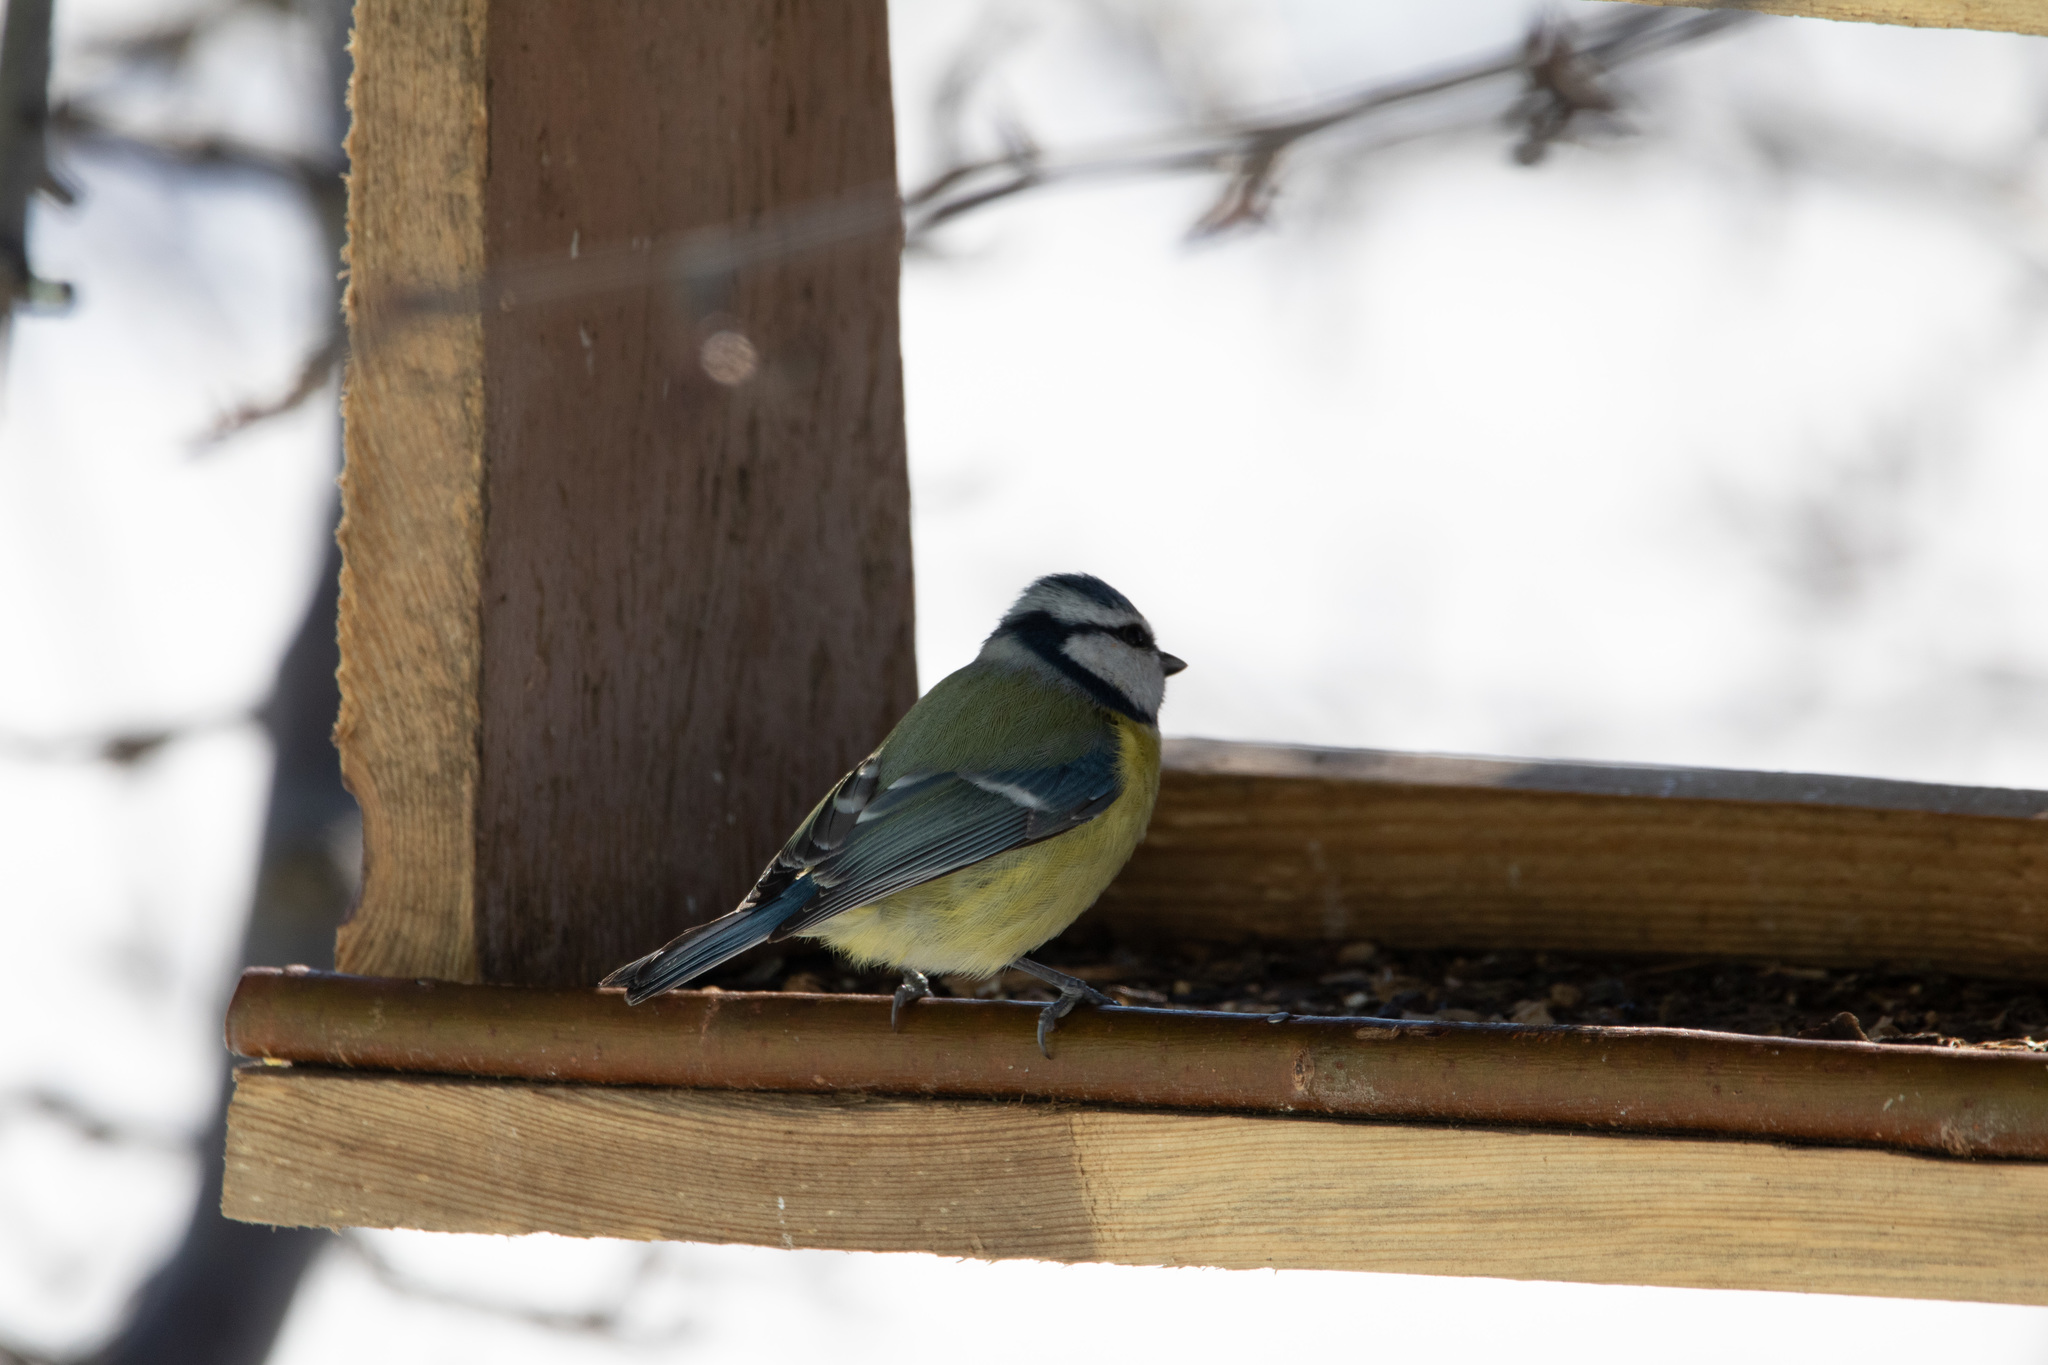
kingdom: Animalia
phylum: Chordata
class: Aves
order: Passeriformes
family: Paridae
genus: Cyanistes
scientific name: Cyanistes caeruleus
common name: Eurasian blue tit
